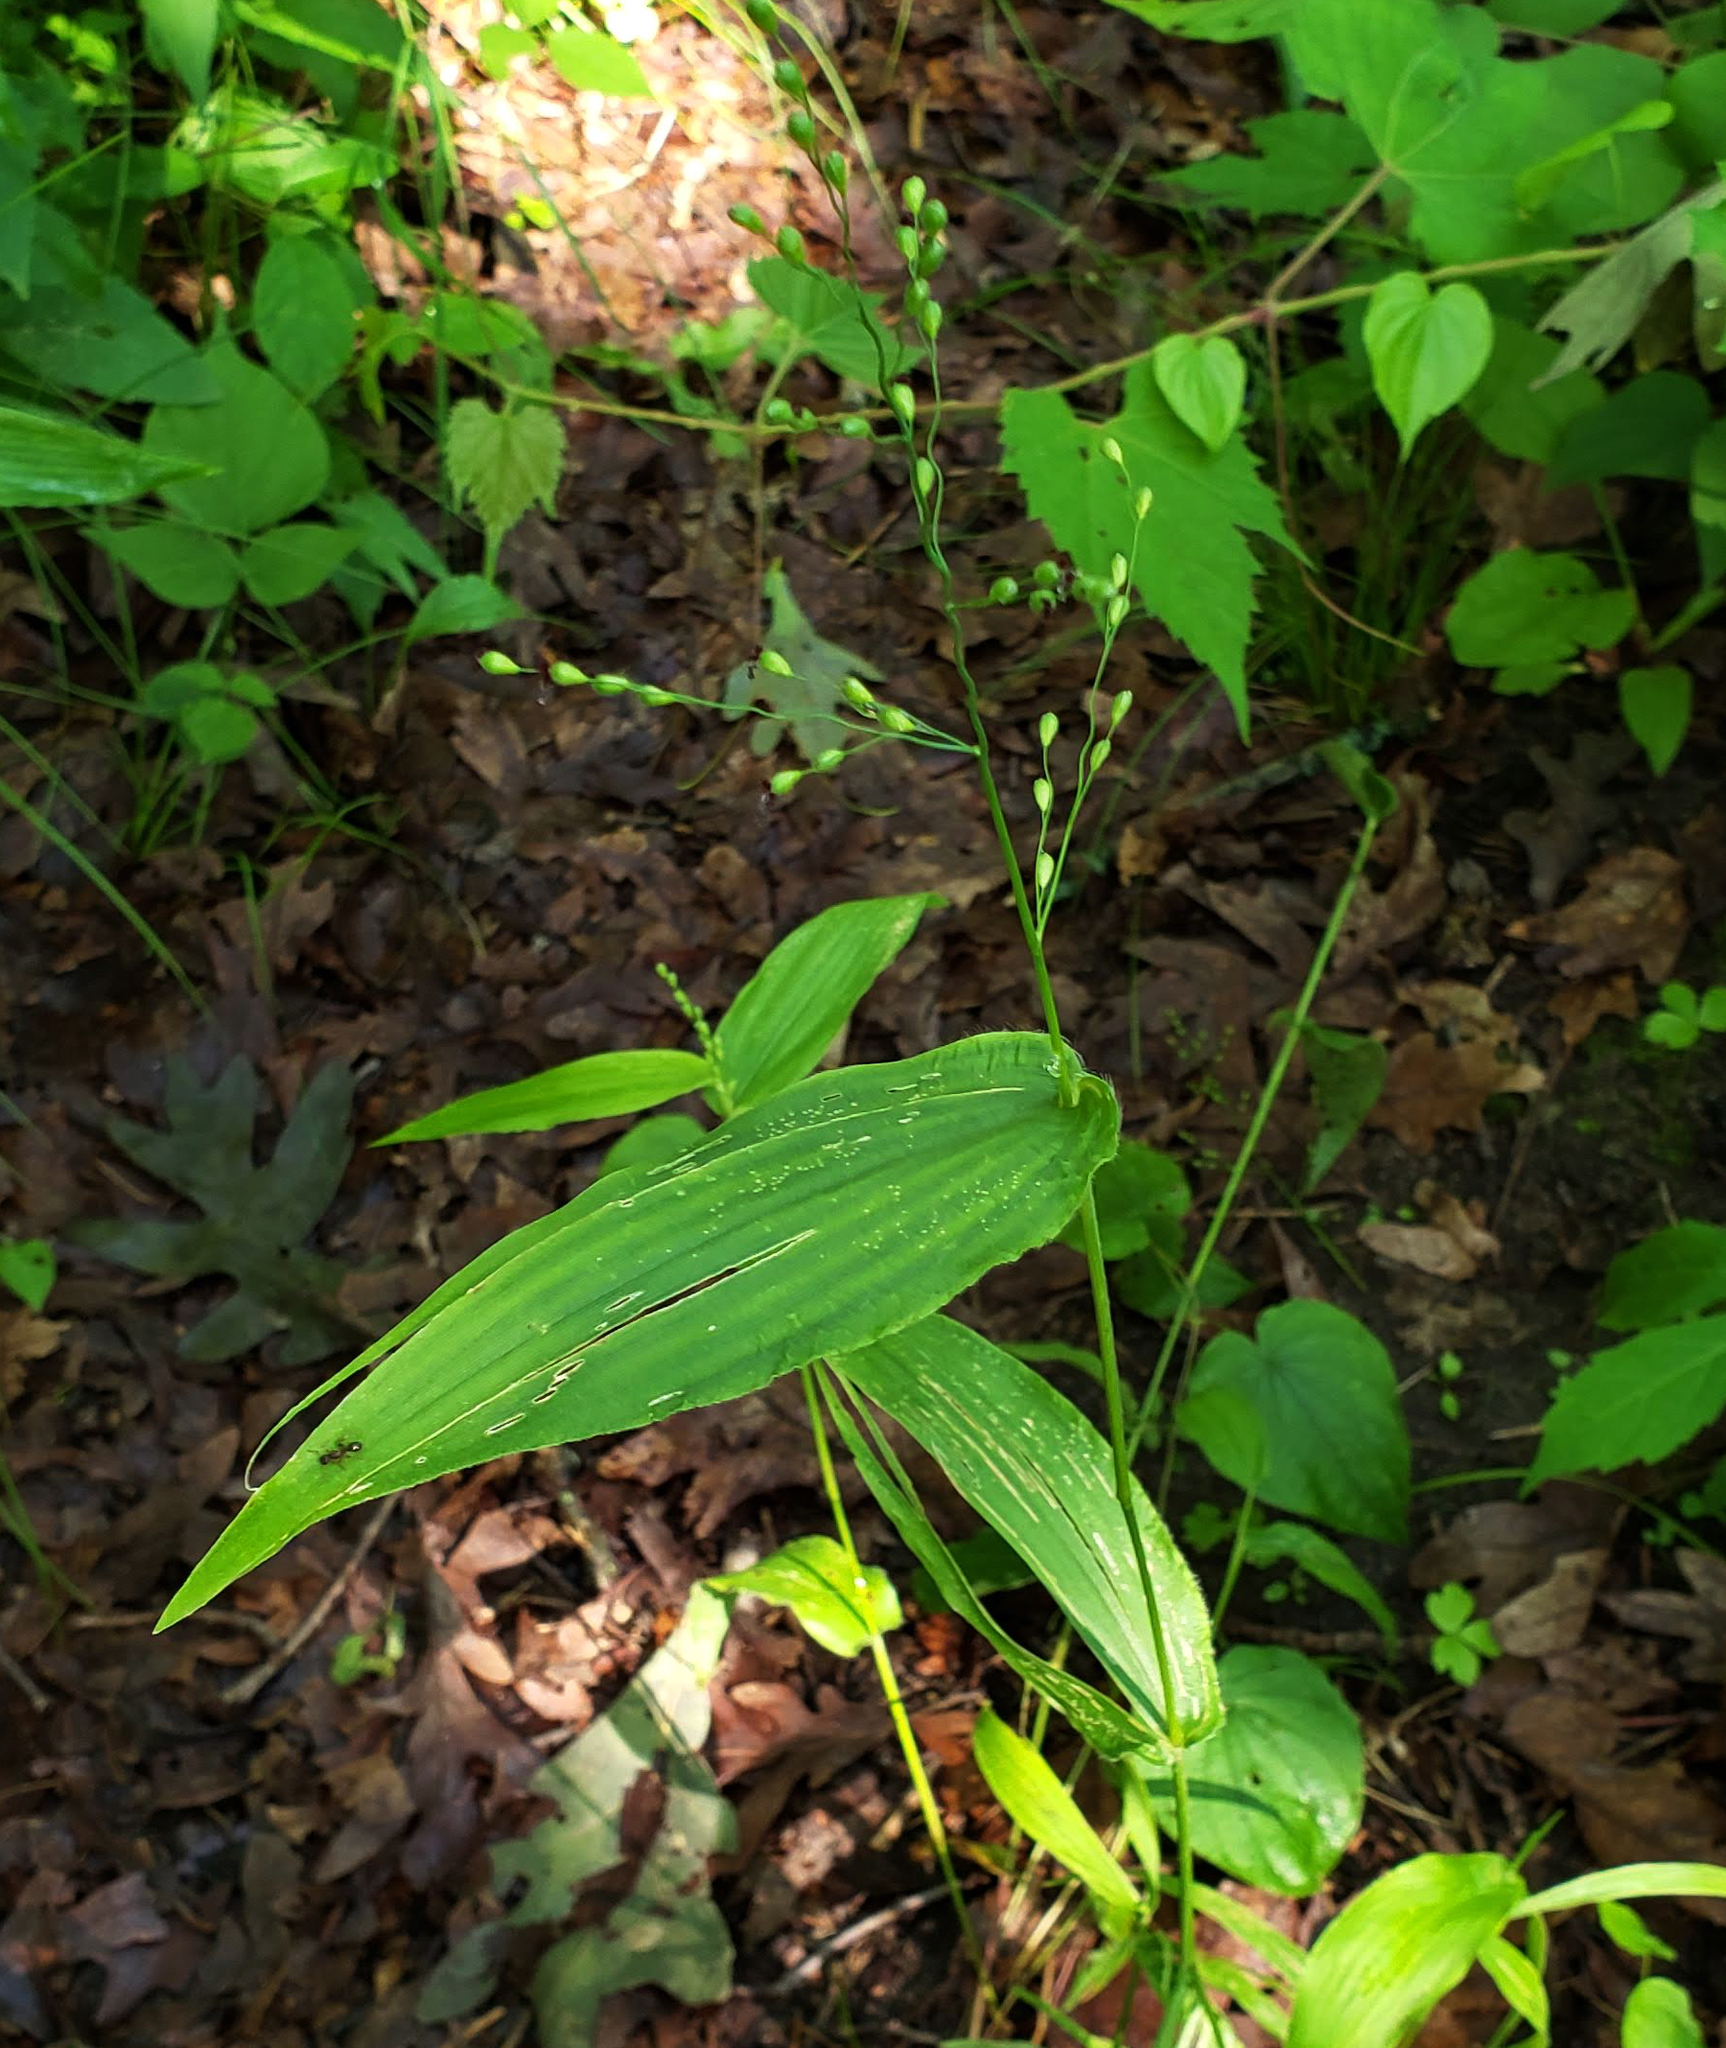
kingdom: Plantae
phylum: Tracheophyta
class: Liliopsida
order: Poales
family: Poaceae
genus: Dichanthelium
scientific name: Dichanthelium latifolium
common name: Broad-leaved panicgrass
